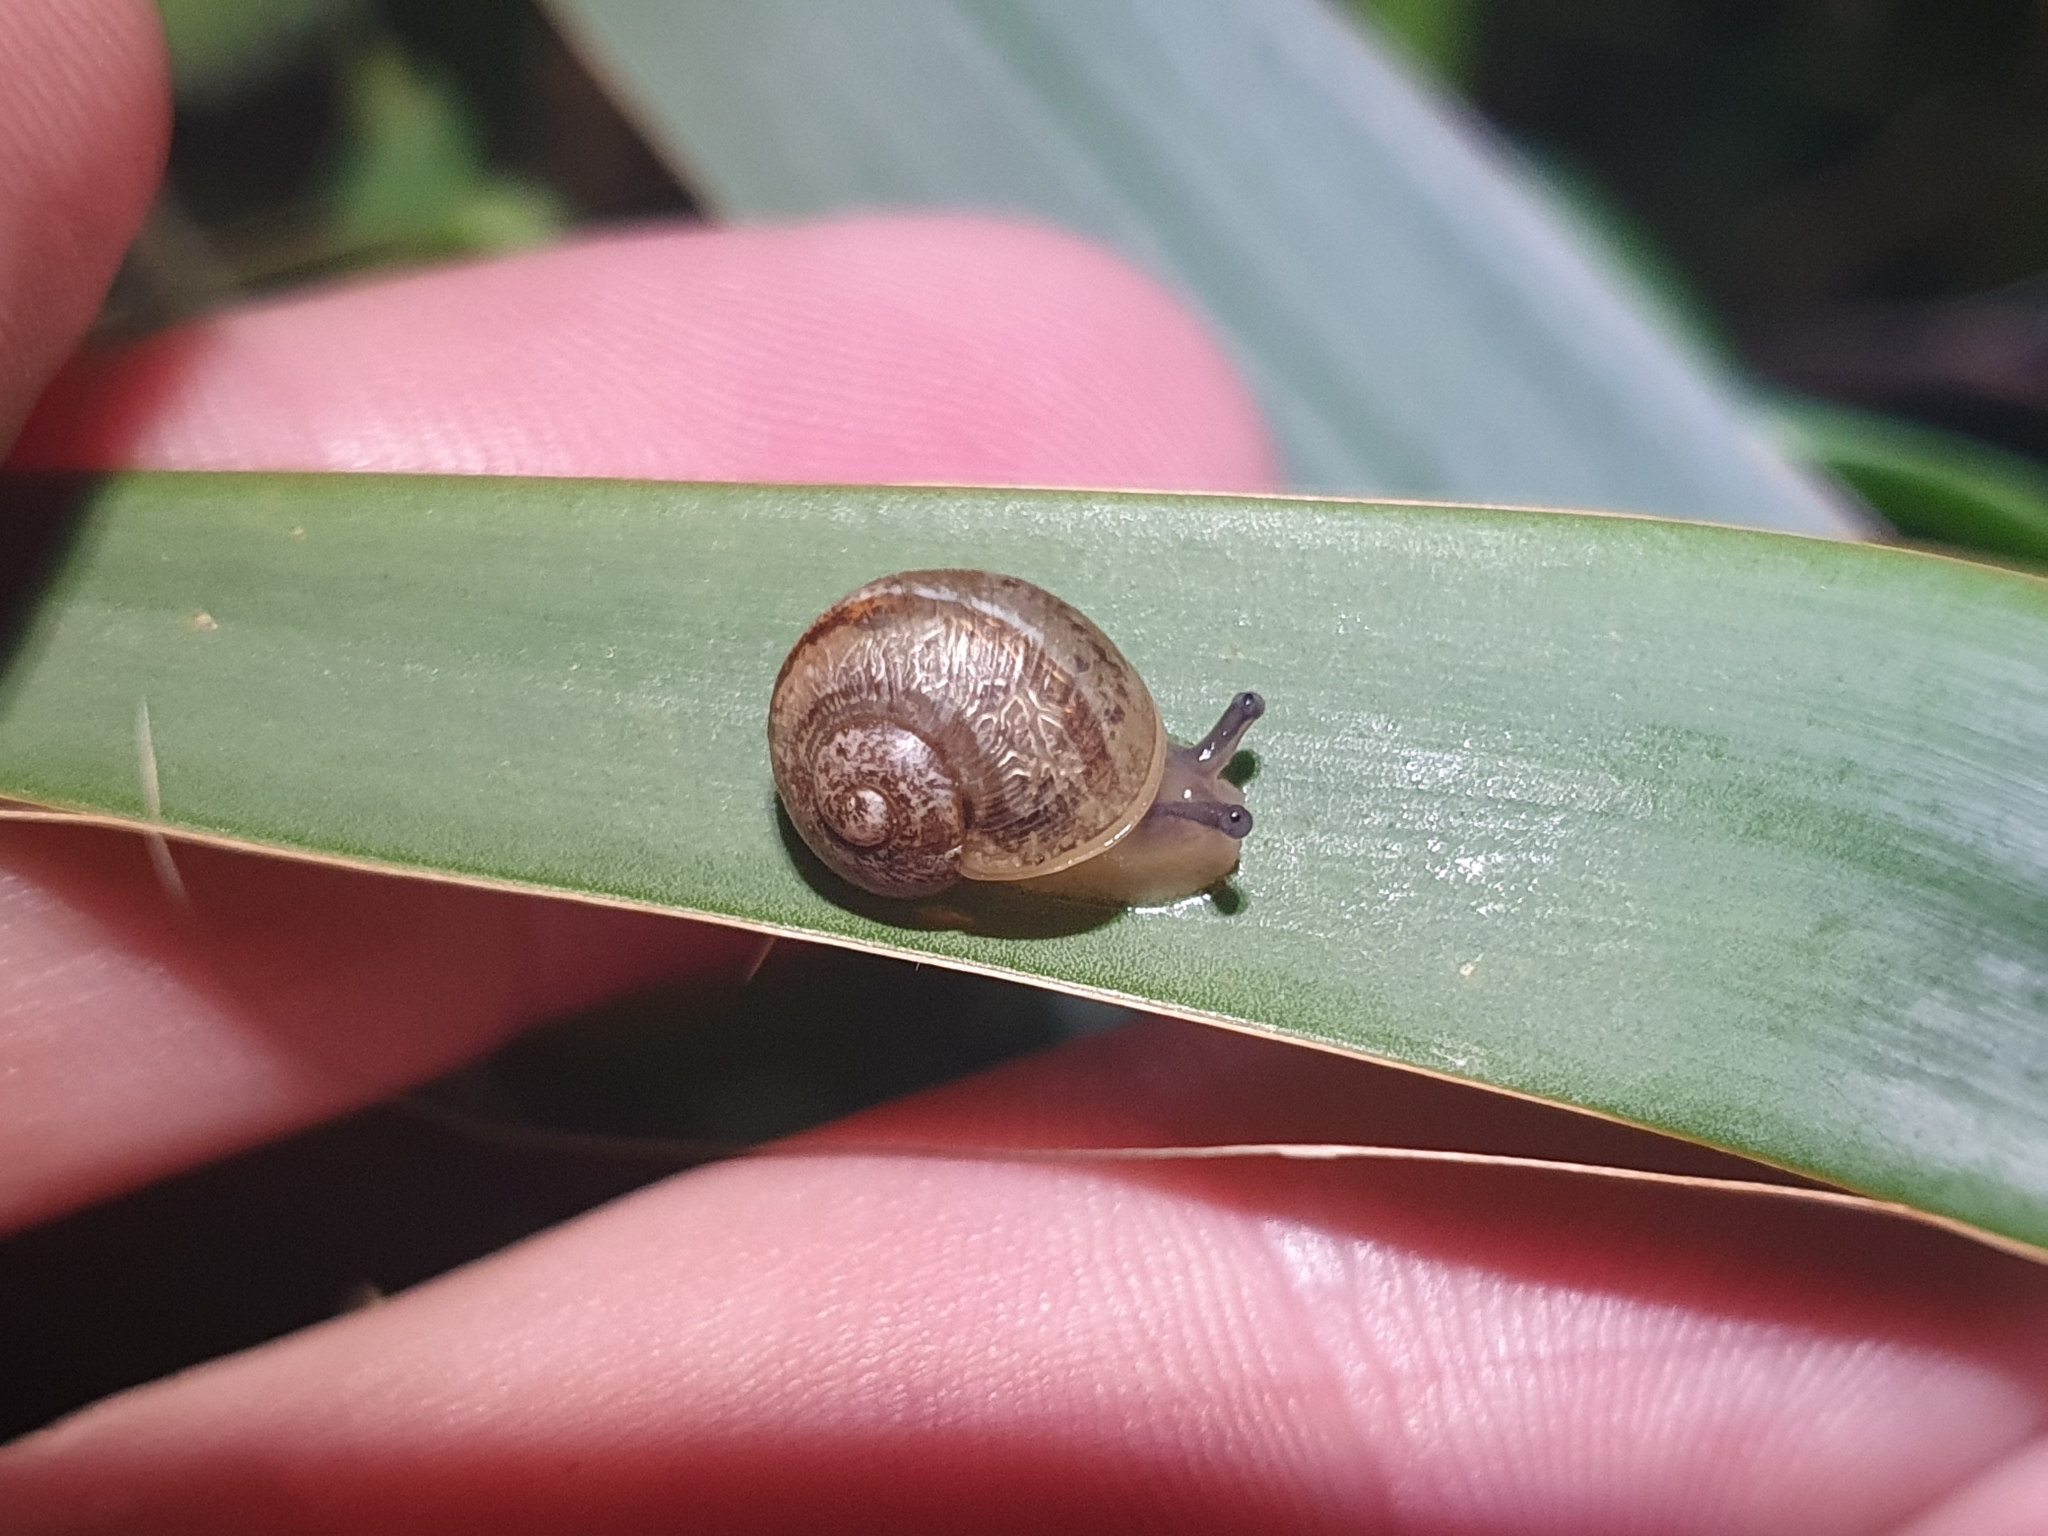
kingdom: Animalia
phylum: Mollusca
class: Gastropoda
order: Stylommatophora
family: Helicidae
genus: Cornu
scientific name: Cornu aspersum
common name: Brown garden snail
